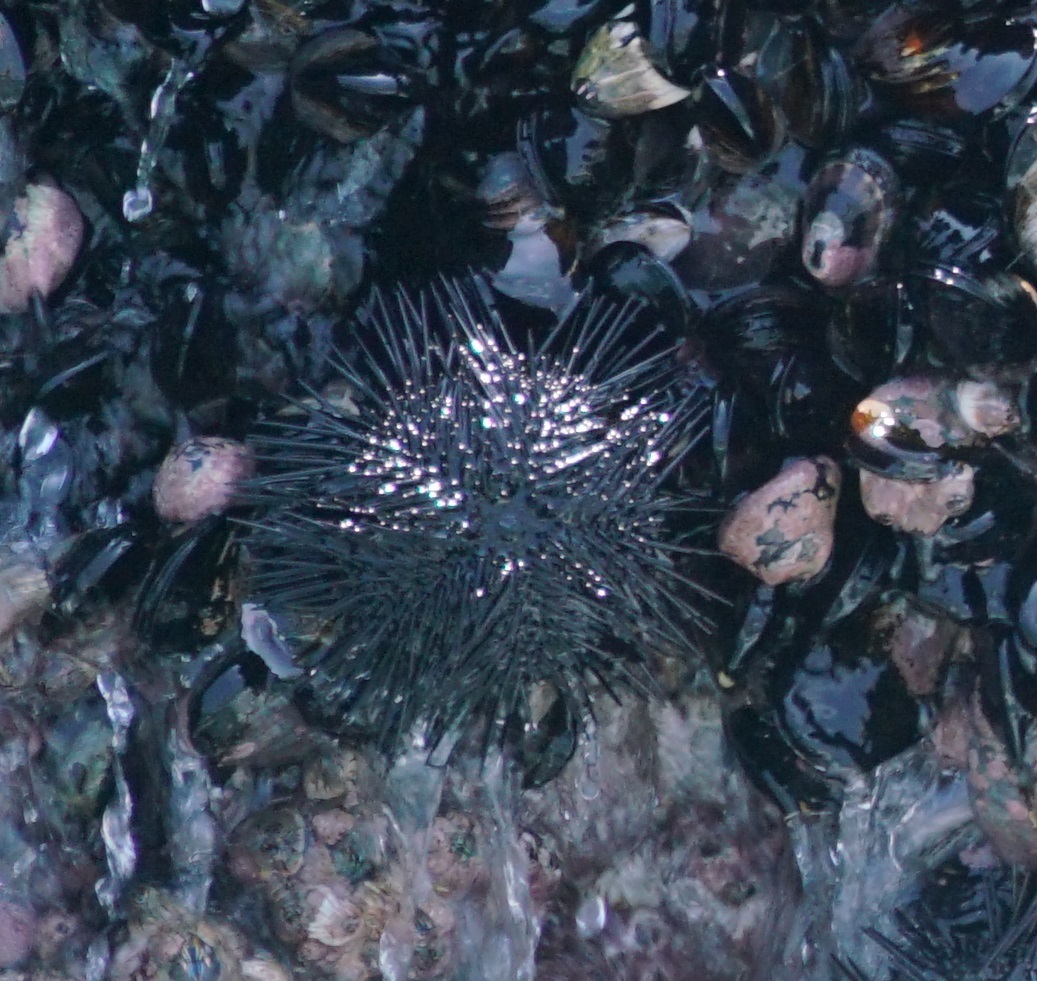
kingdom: Animalia
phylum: Echinodermata
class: Echinoidea
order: Arbacioida
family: Arbaciidae
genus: Tetrapygus
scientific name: Tetrapygus niger
